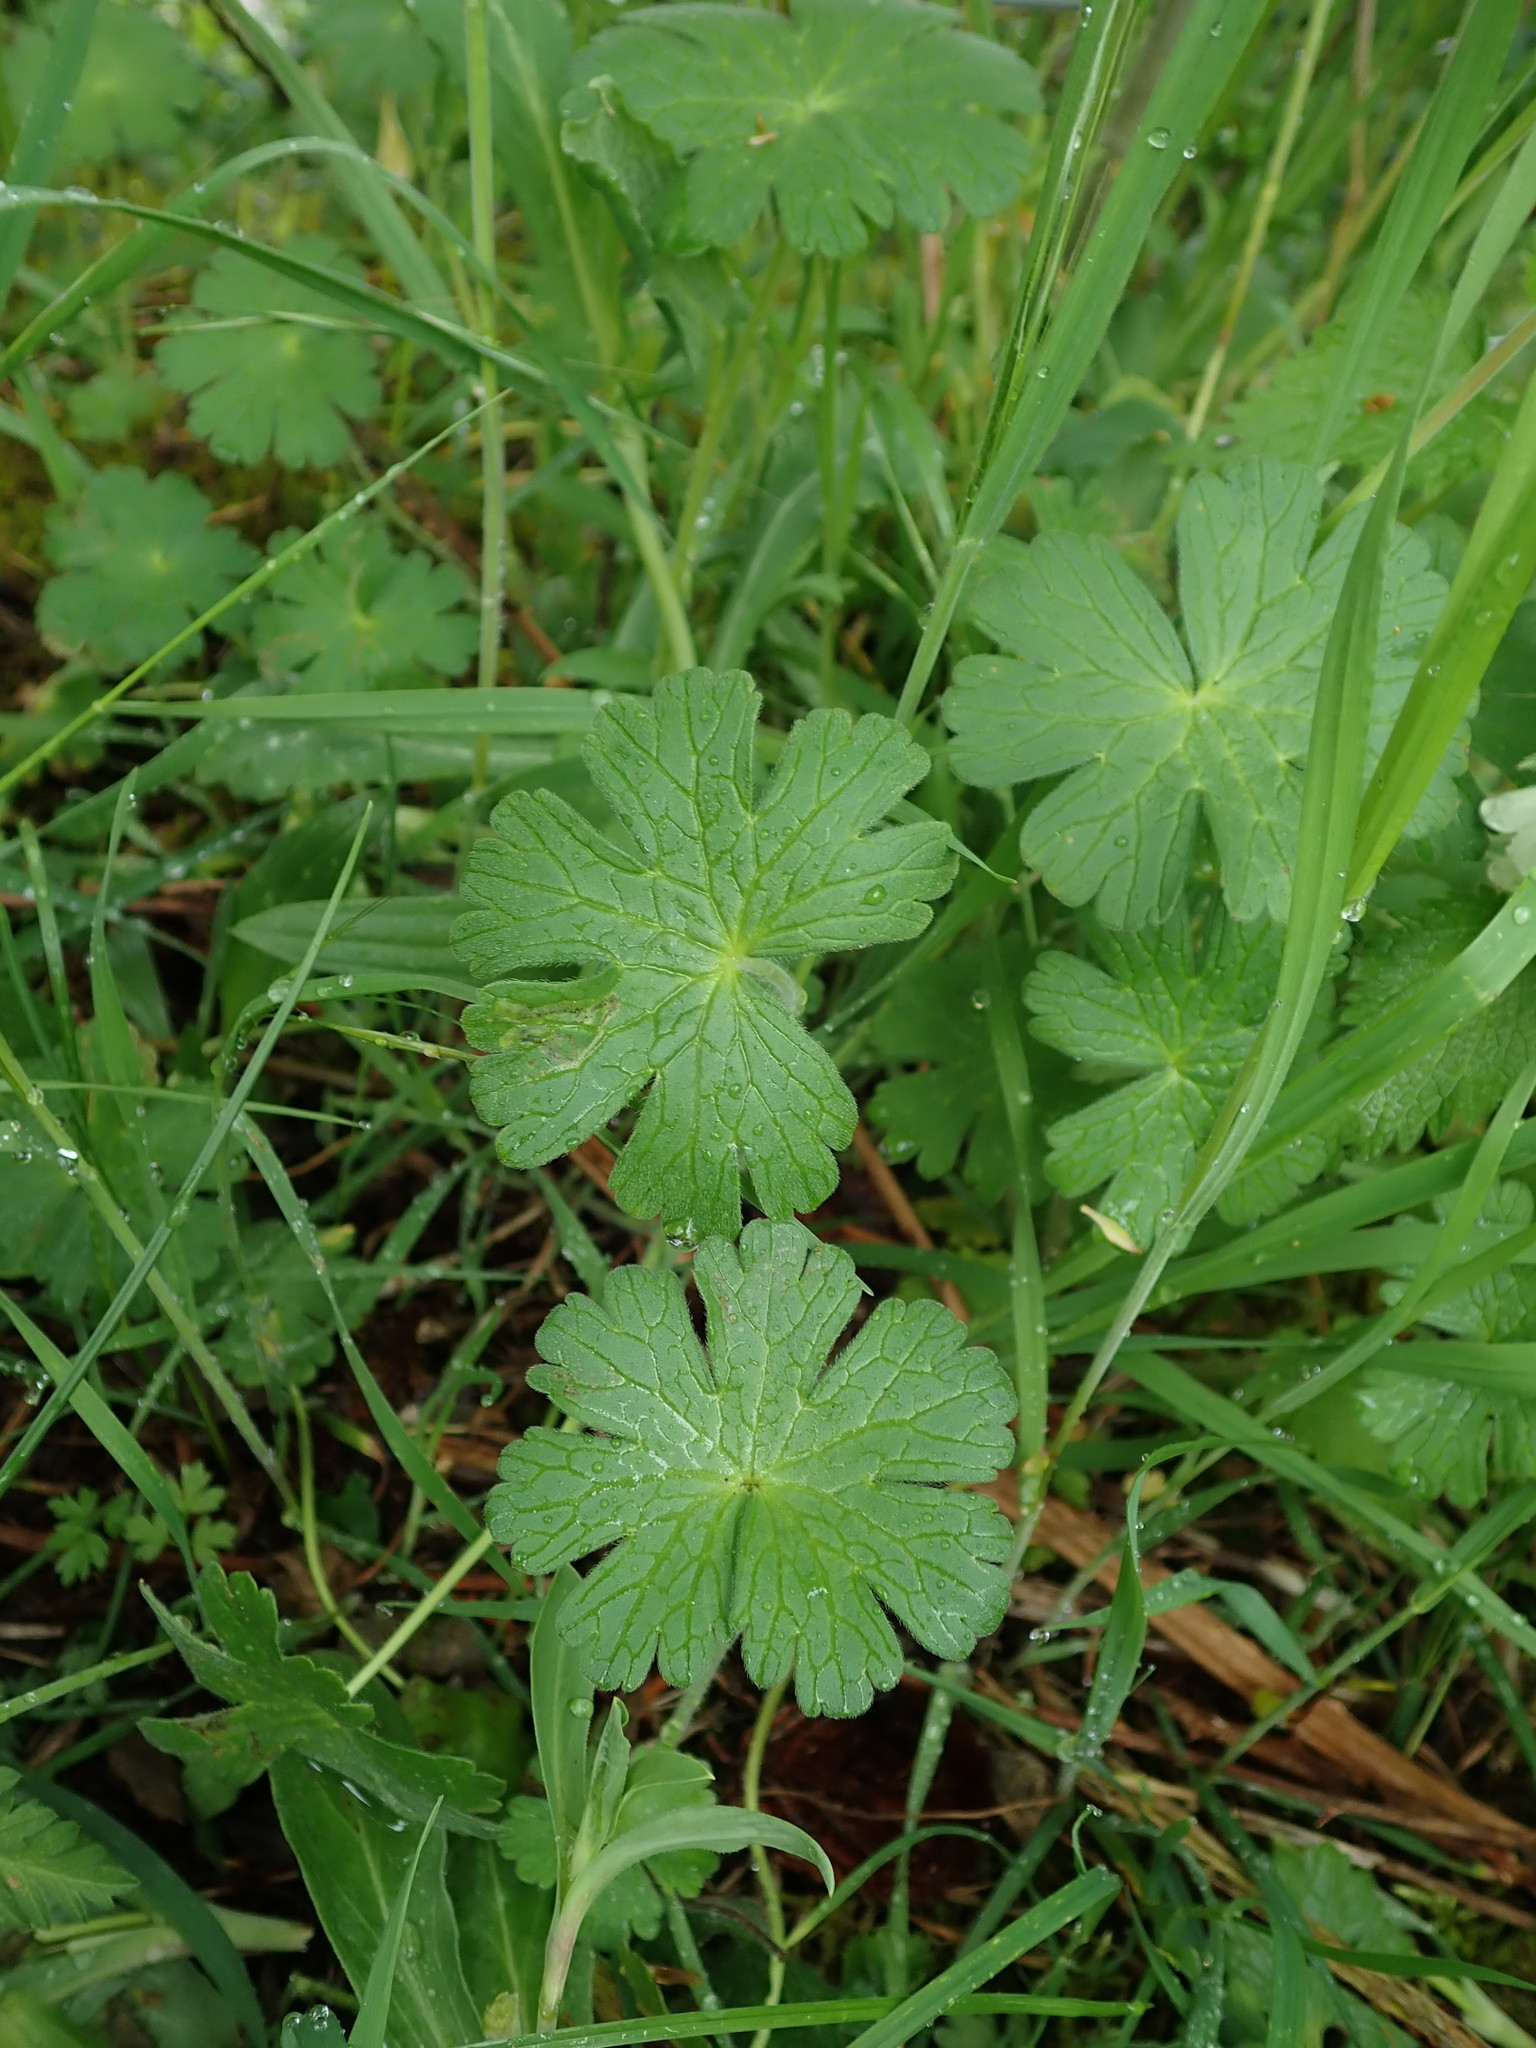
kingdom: Plantae
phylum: Tracheophyta
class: Magnoliopsida
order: Geraniales
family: Geraniaceae
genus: Geranium
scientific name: Geranium pyrenaicum
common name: Hedgerow crane's-bill
